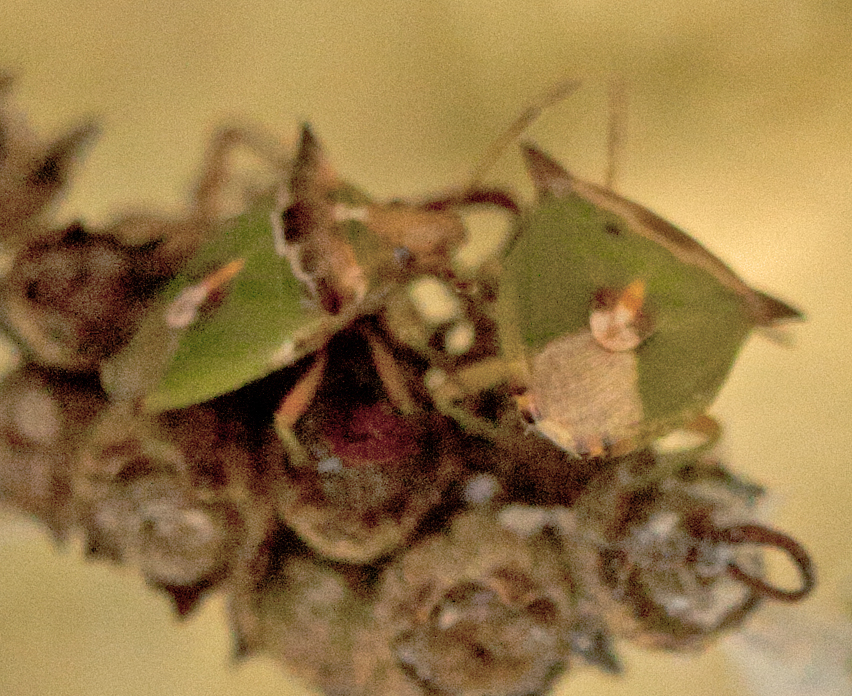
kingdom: Animalia
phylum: Arthropoda
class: Insecta
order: Hemiptera
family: Pentatomidae
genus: Cuspicona
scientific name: Cuspicona
